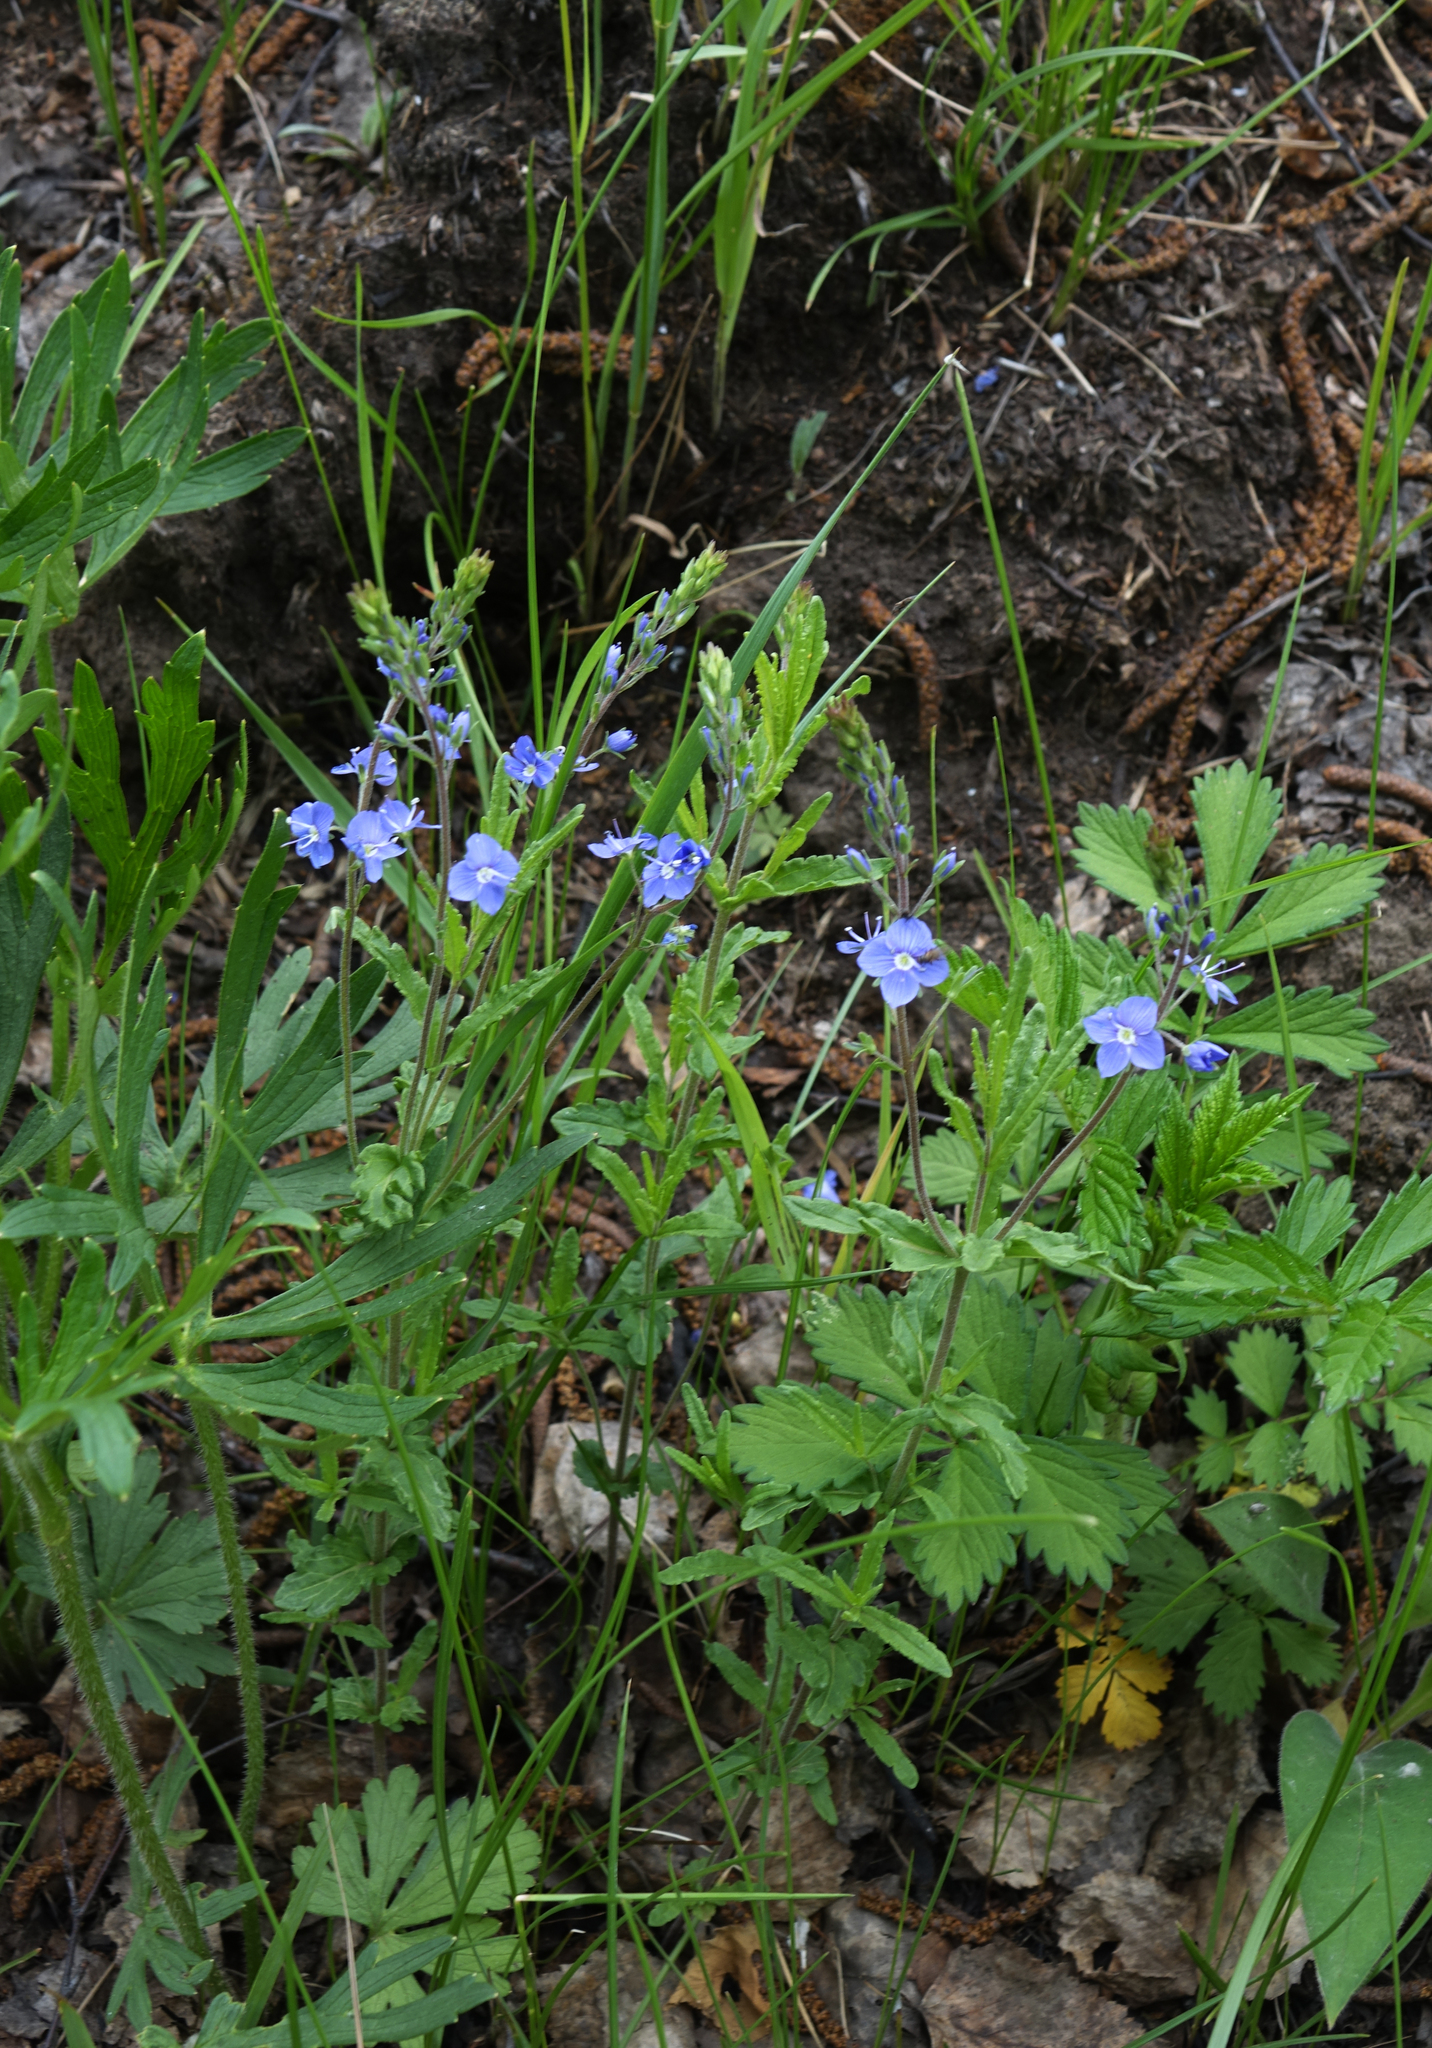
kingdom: Plantae
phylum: Tracheophyta
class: Magnoliopsida
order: Lamiales
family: Plantaginaceae
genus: Veronica
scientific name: Veronica krylovii
